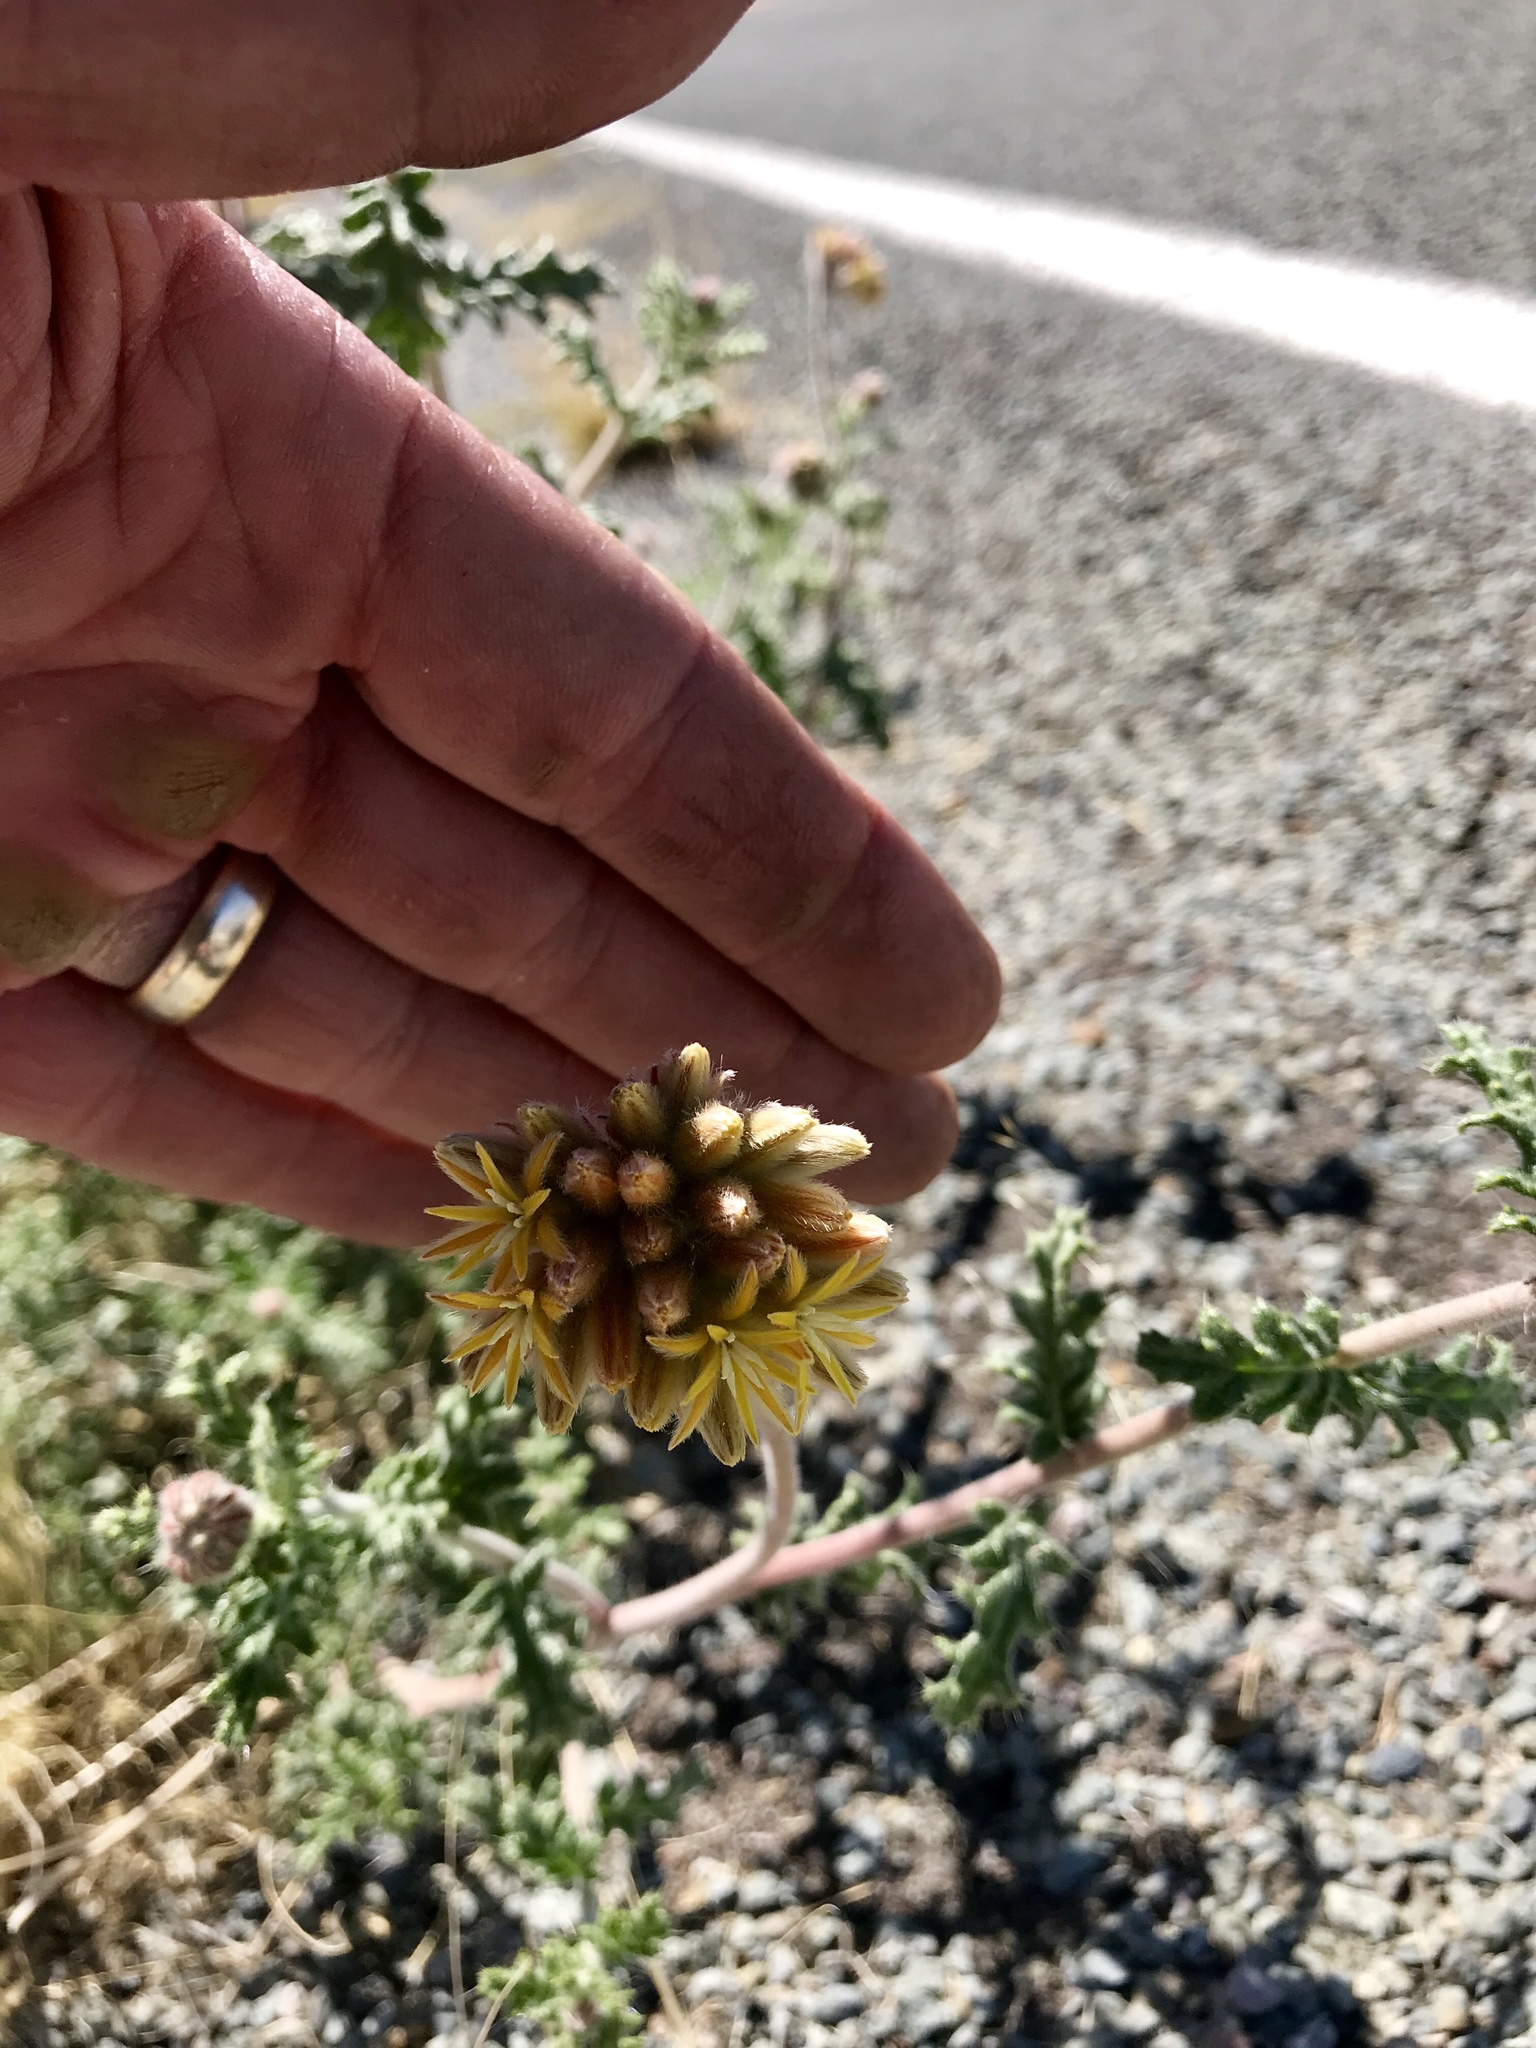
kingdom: Plantae
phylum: Tracheophyta
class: Magnoliopsida
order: Cornales
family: Loasaceae
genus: Cevallia
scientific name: Cevallia sinuata
